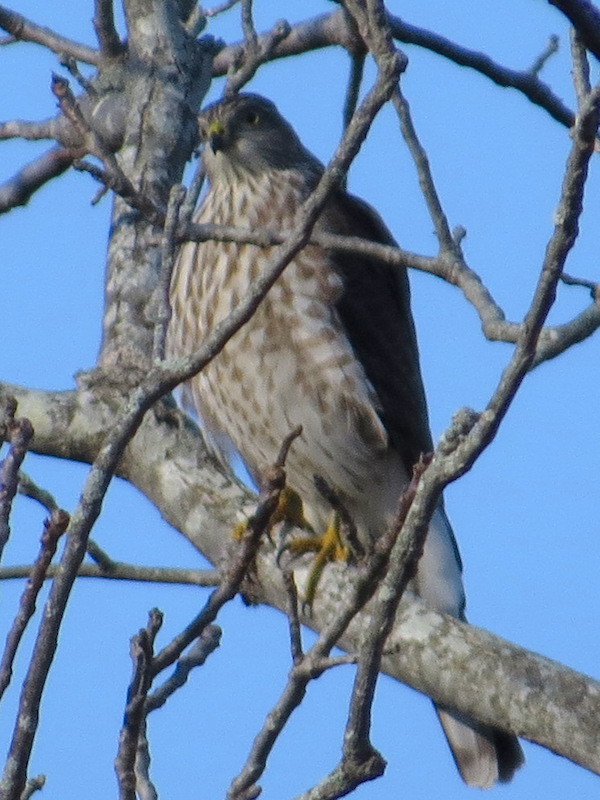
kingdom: Animalia
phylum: Chordata
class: Aves
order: Accipitriformes
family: Accipitridae
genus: Accipiter
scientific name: Accipiter striatus
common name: Sharp-shinned hawk
